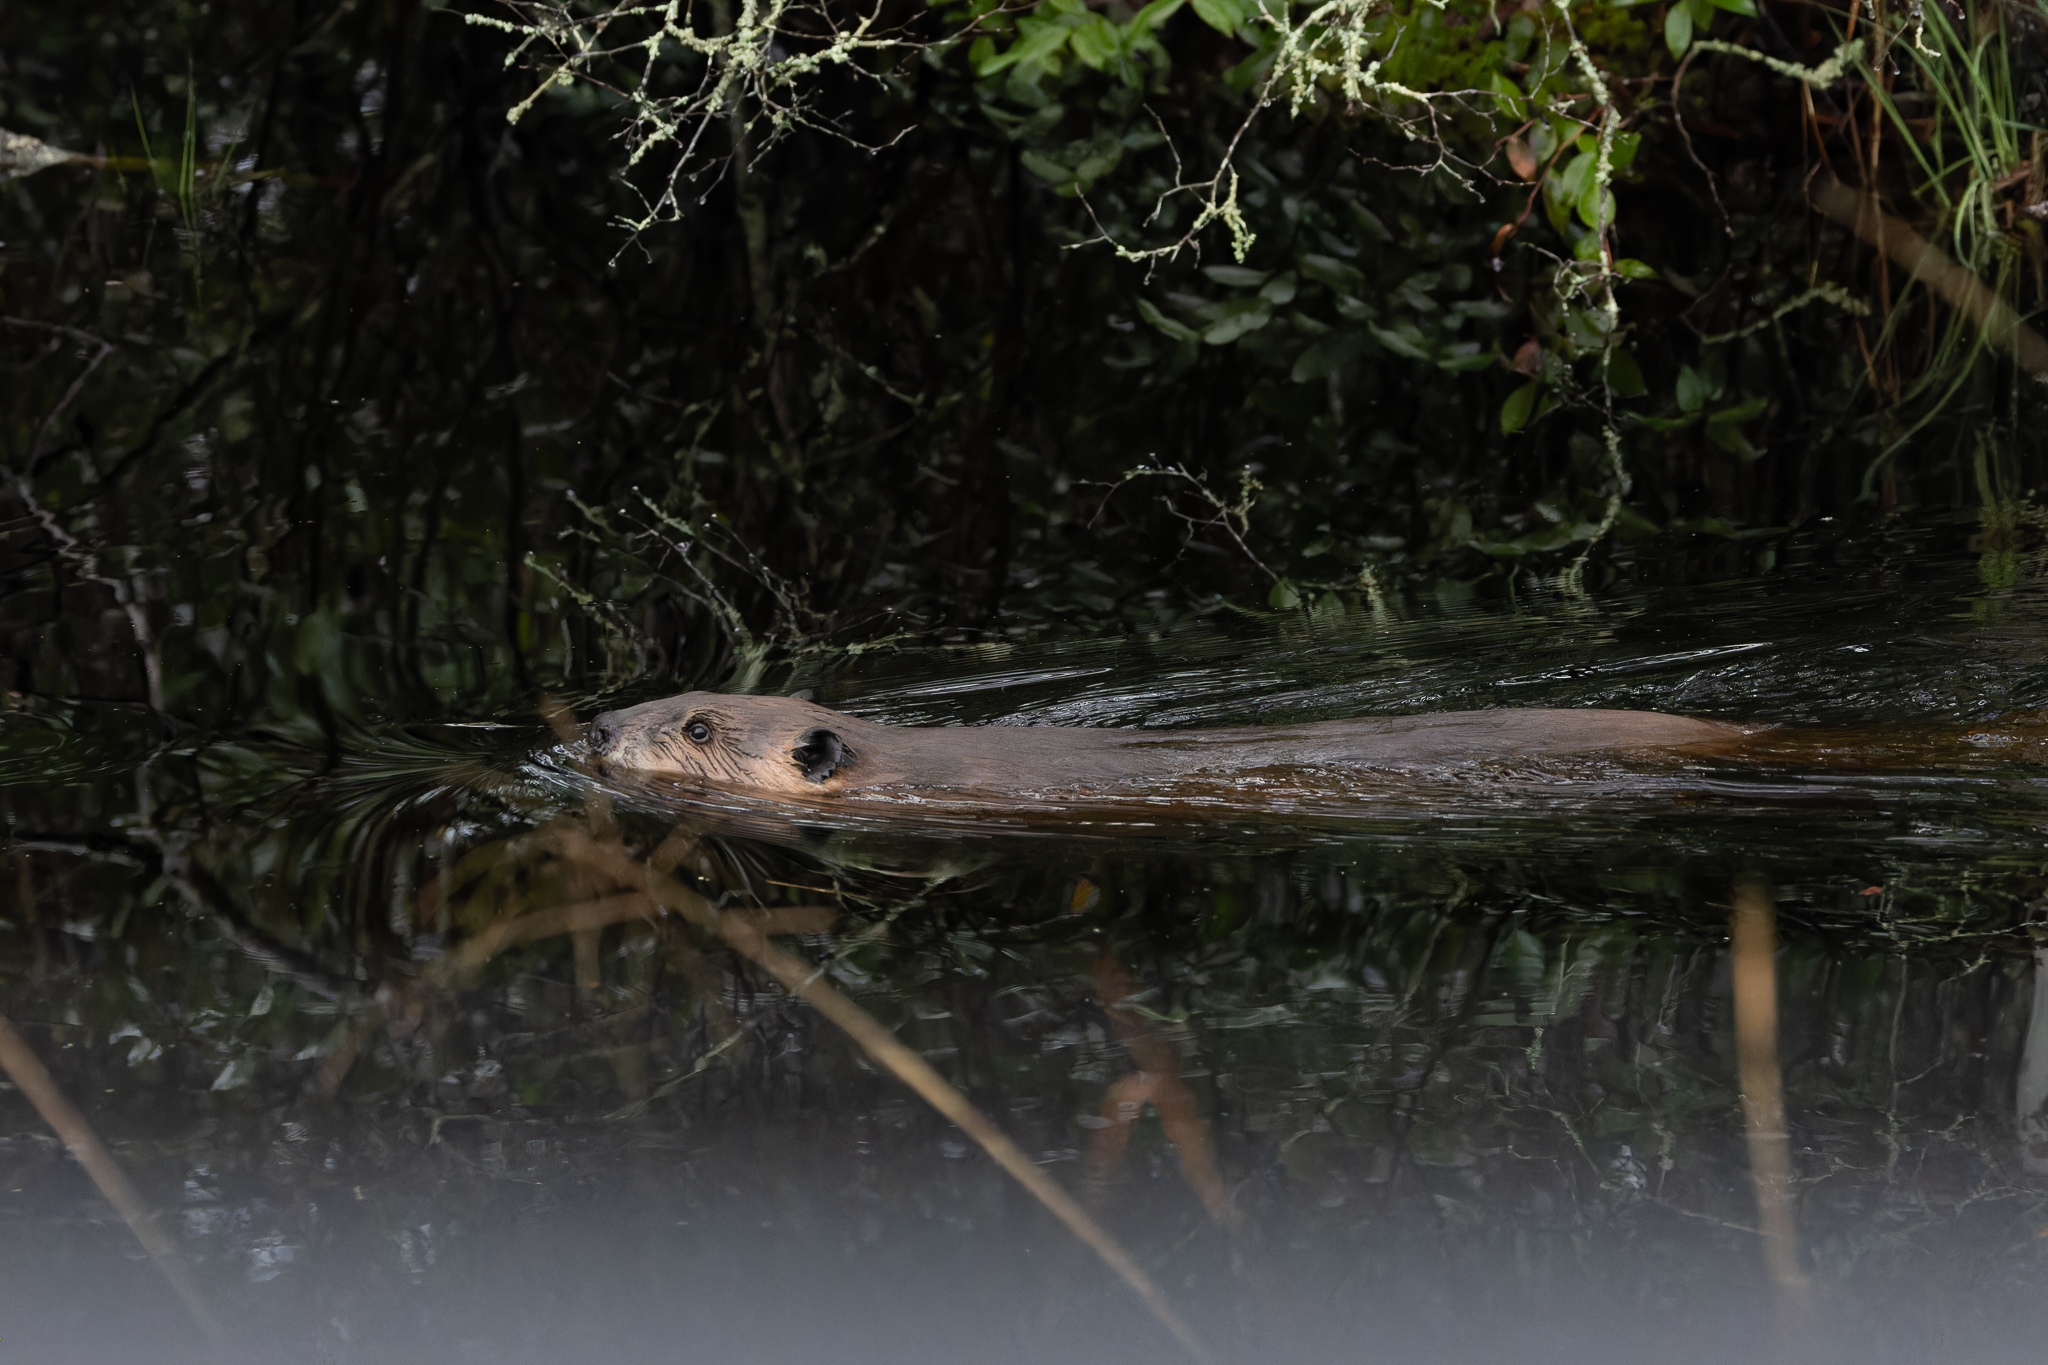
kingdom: Animalia
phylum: Chordata
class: Mammalia
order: Rodentia
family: Castoridae
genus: Castor
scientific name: Castor canadensis
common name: American beaver
